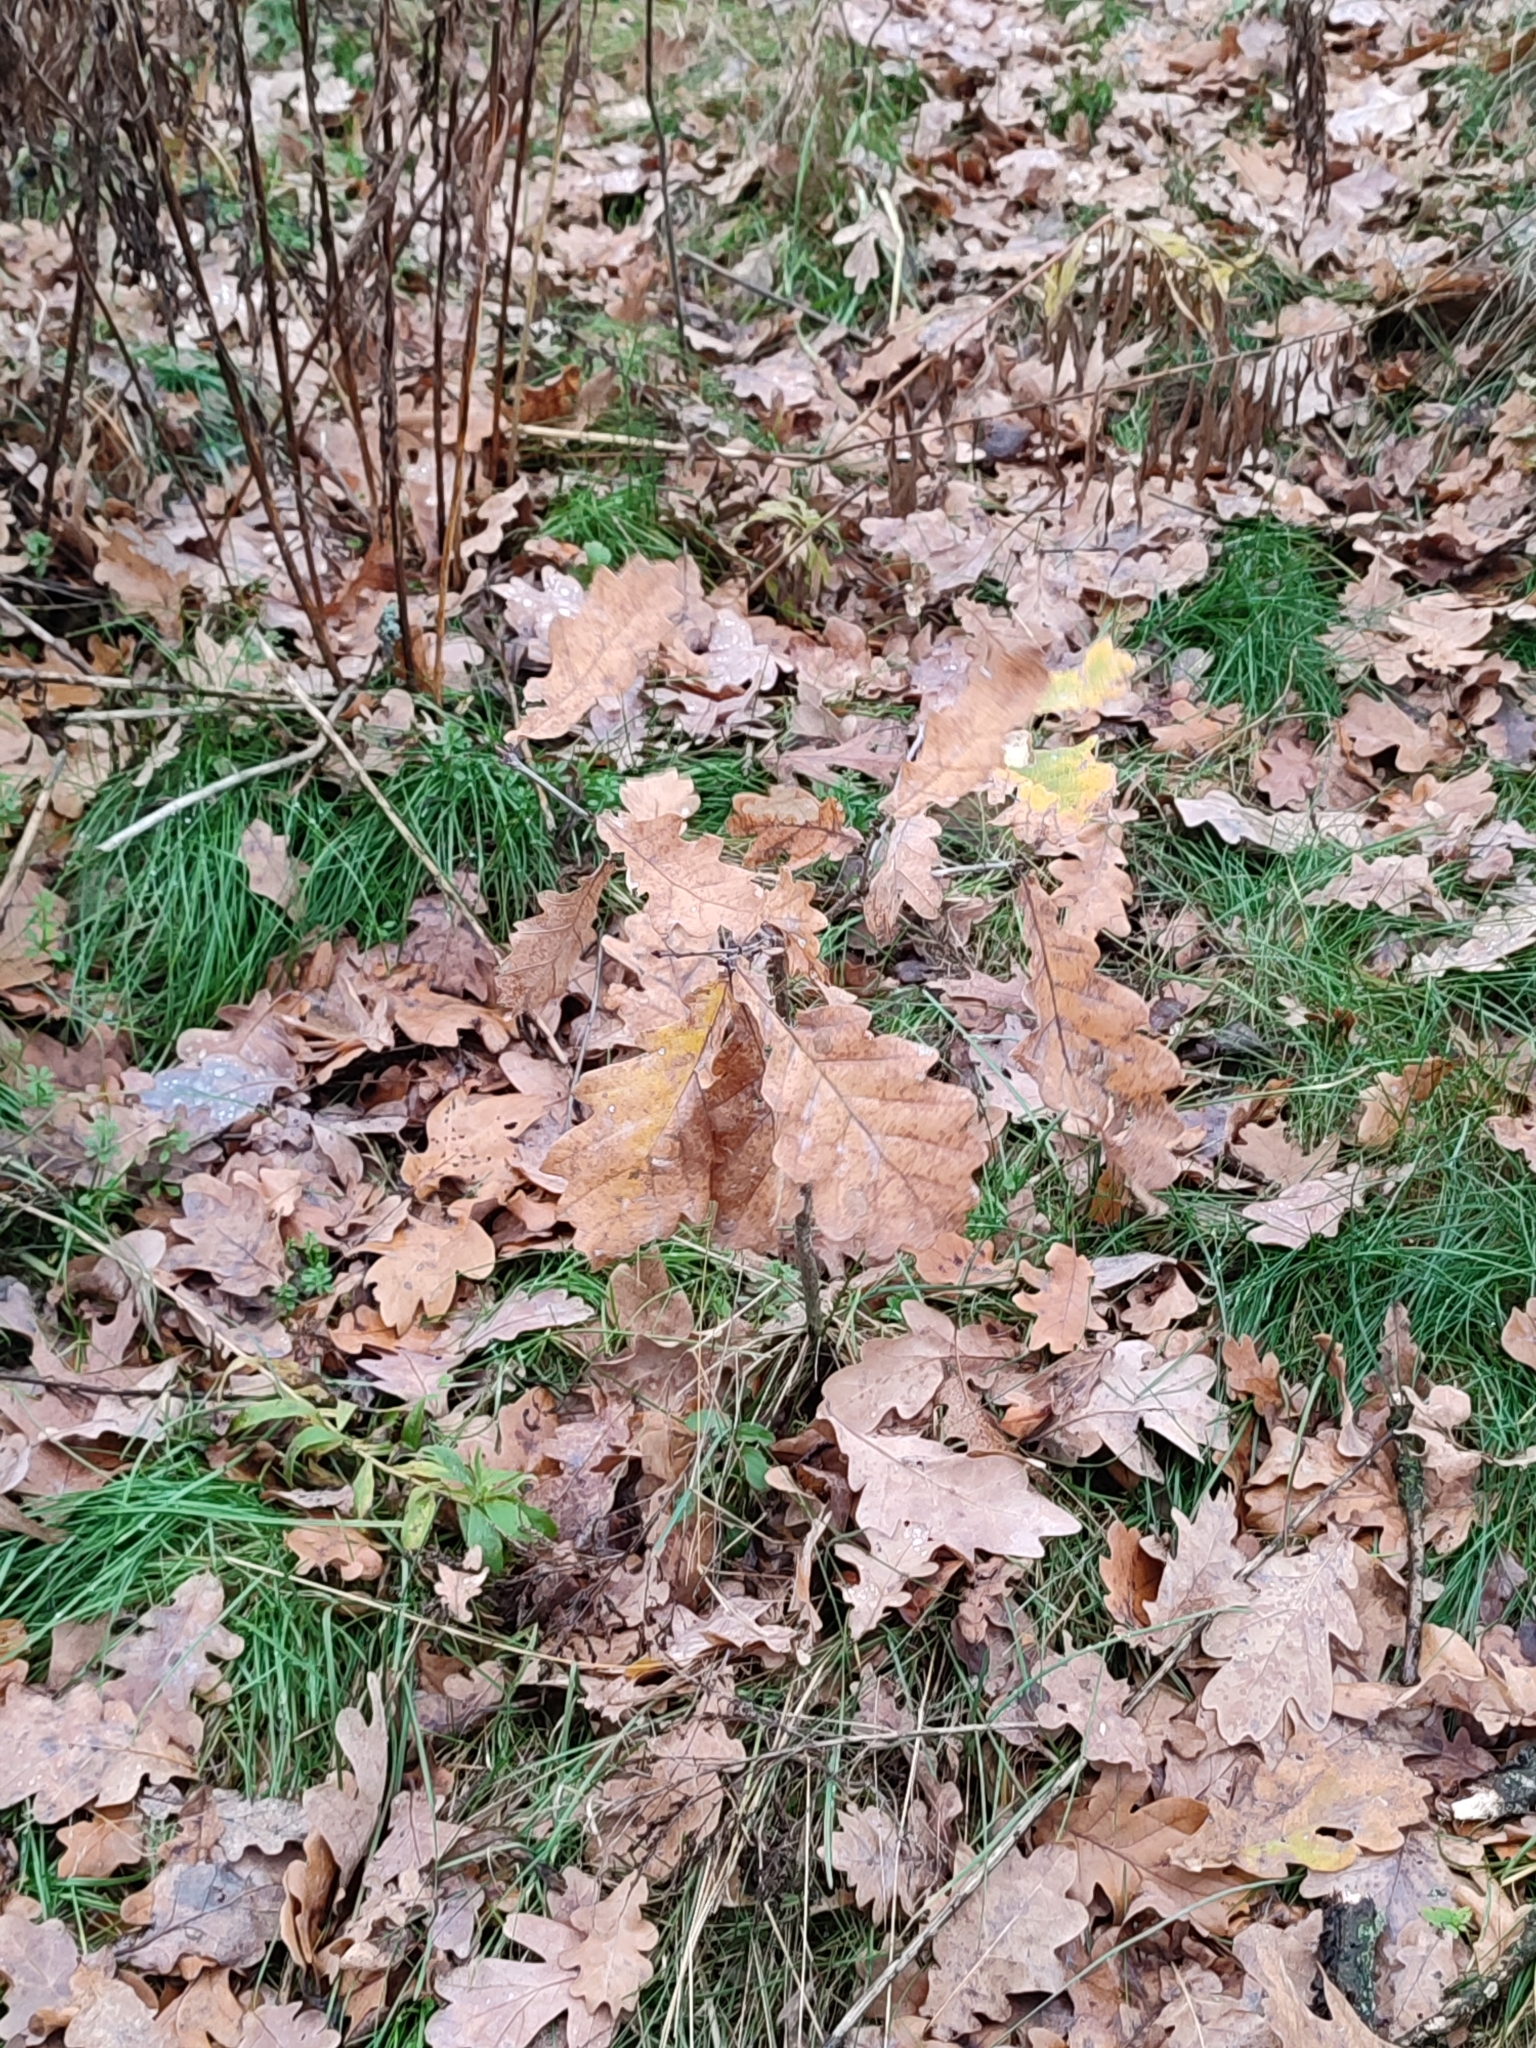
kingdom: Plantae
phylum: Tracheophyta
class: Magnoliopsida
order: Fagales
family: Fagaceae
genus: Quercus
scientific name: Quercus robur
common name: Pedunculate oak
